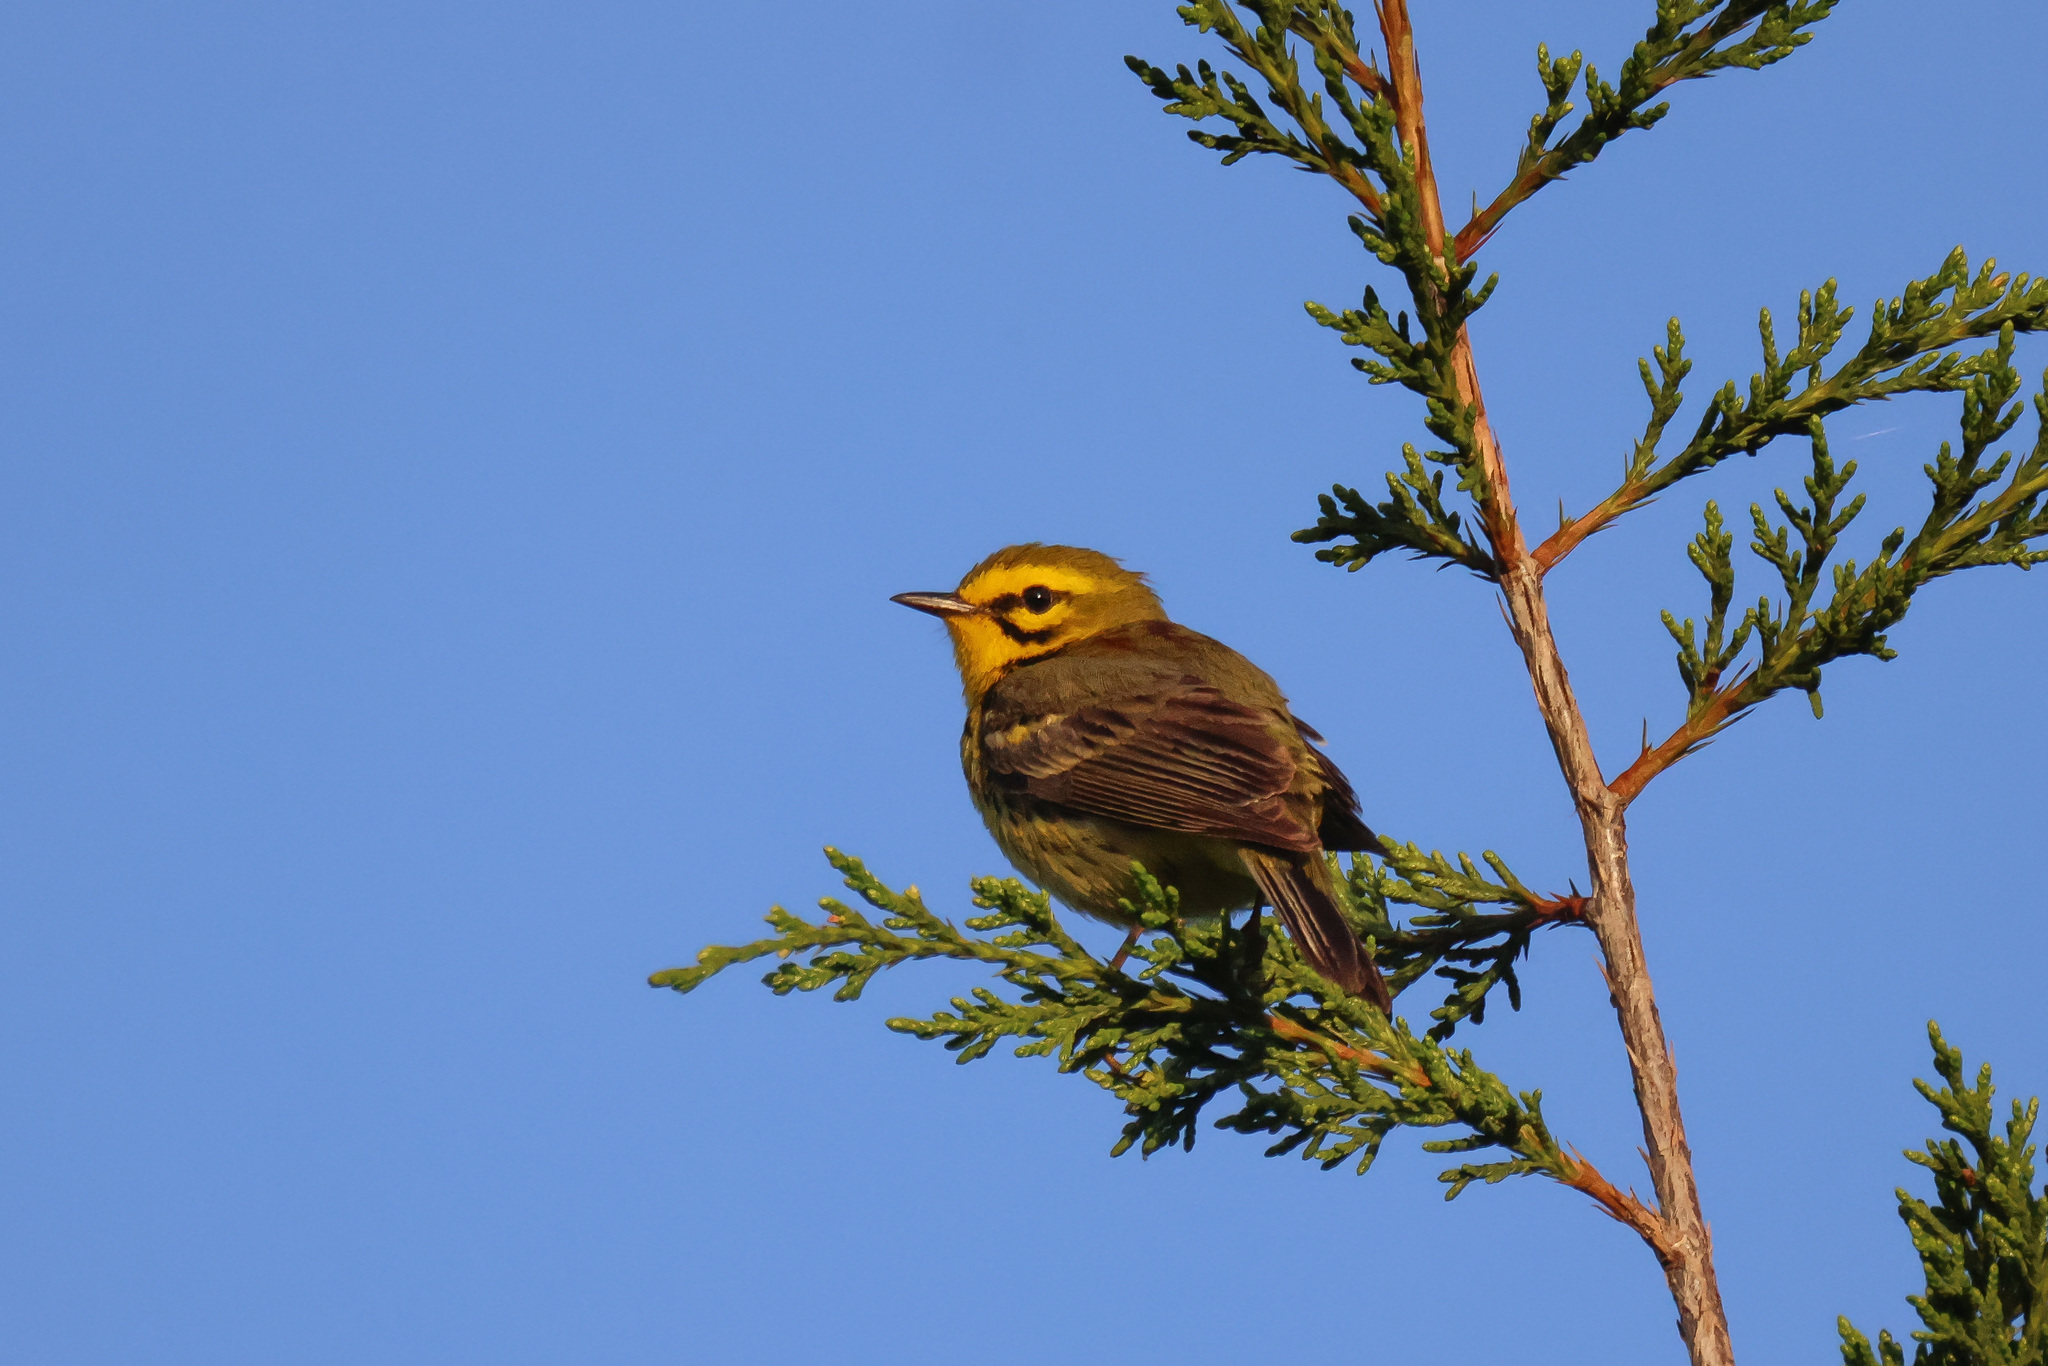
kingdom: Animalia
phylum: Chordata
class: Aves
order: Passeriformes
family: Parulidae
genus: Setophaga
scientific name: Setophaga discolor
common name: Prairie warbler
